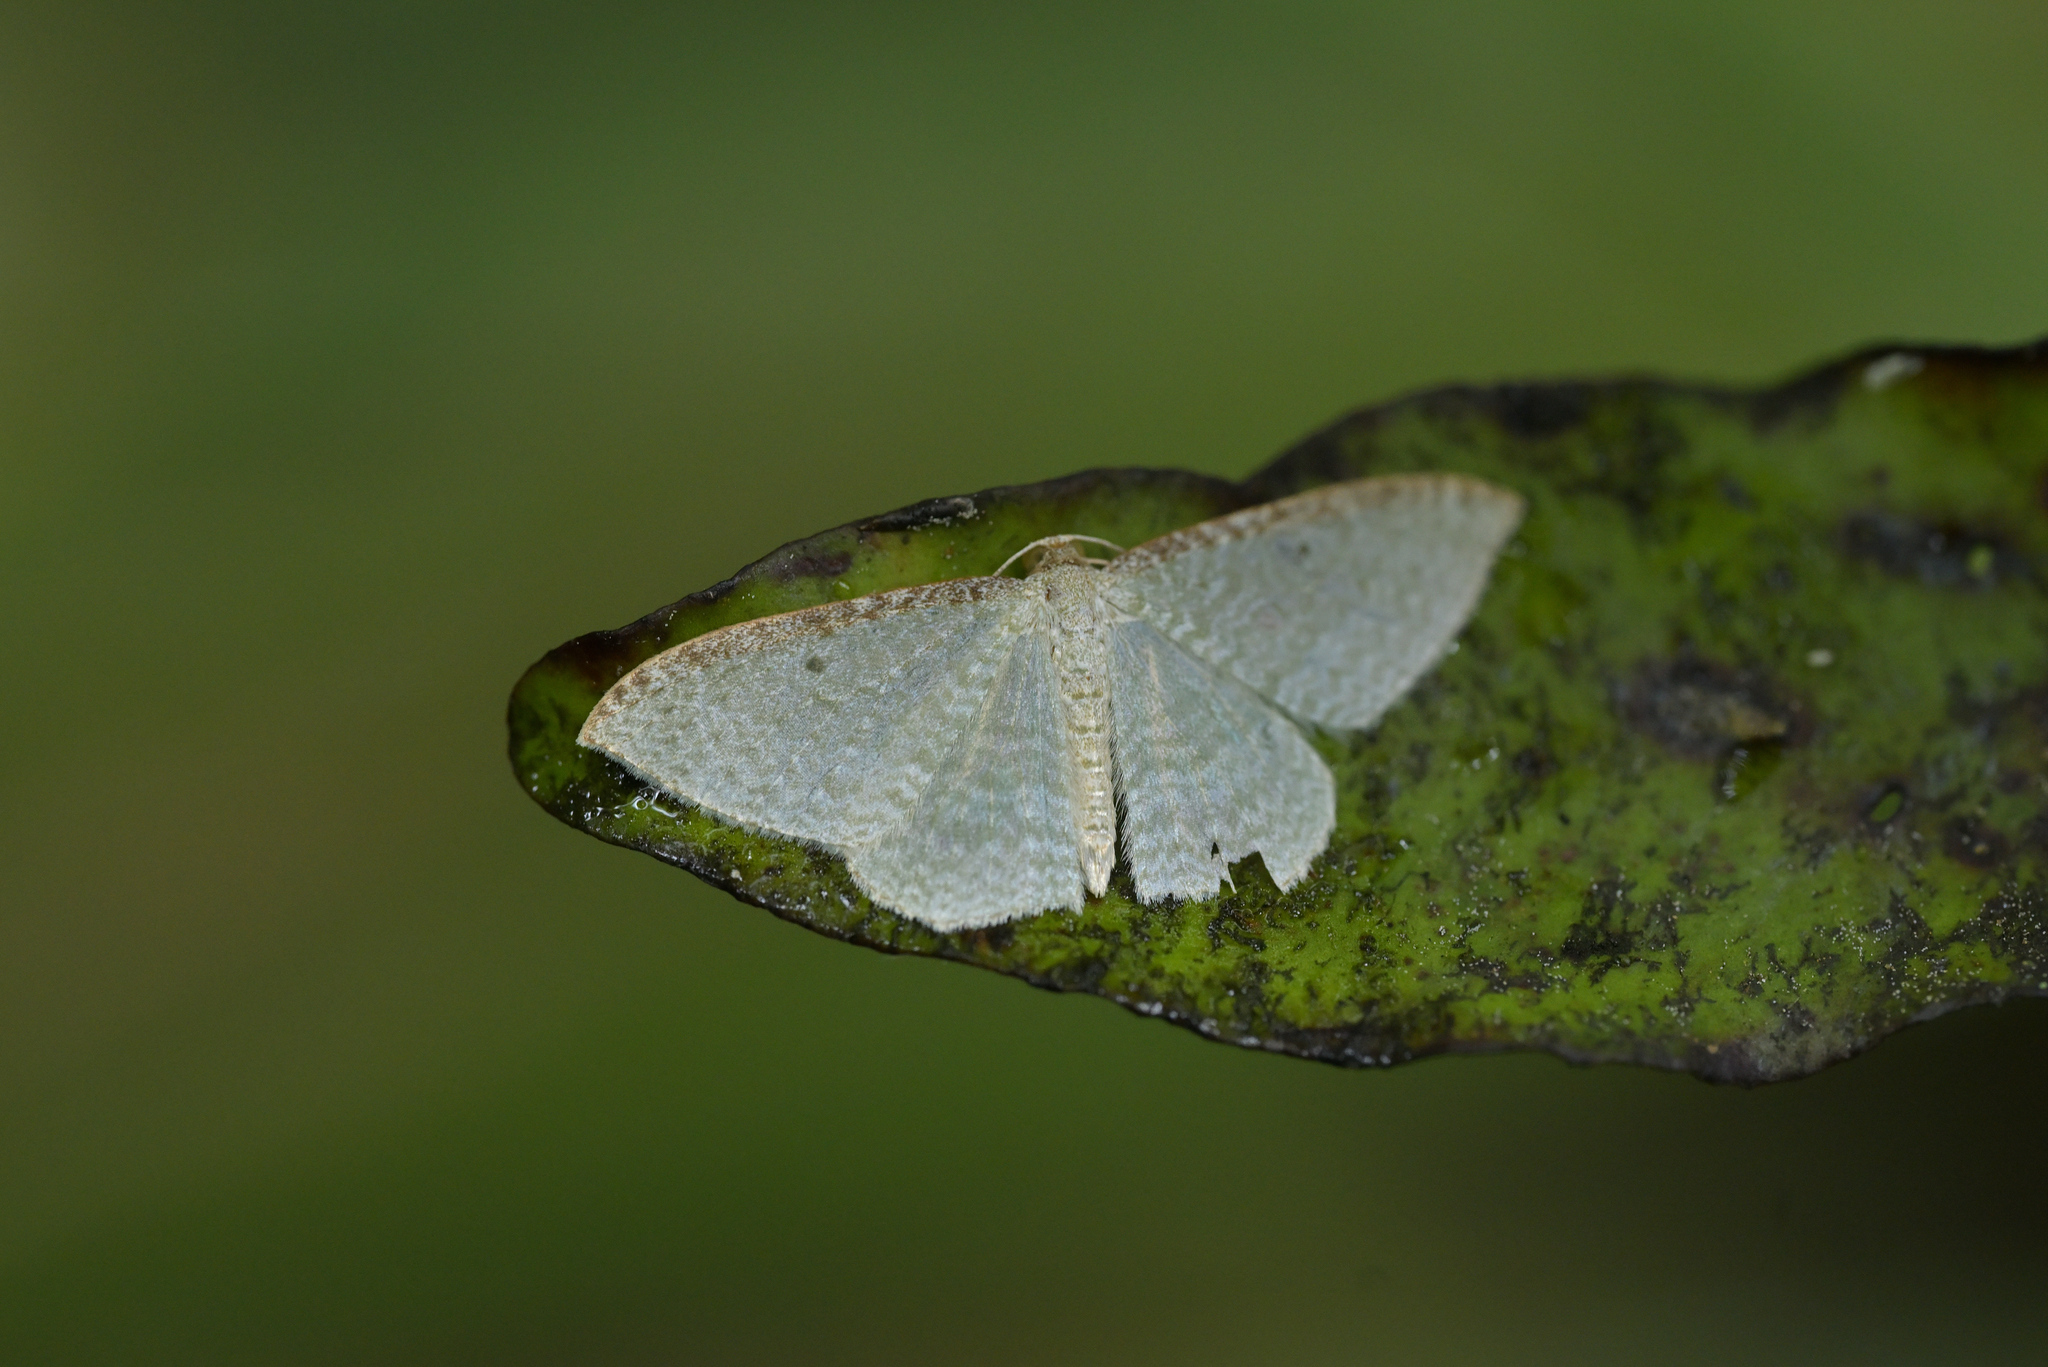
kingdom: Animalia
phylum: Arthropoda
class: Insecta
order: Lepidoptera
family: Geometridae
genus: Poecilasthena
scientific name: Poecilasthena pulchraria
